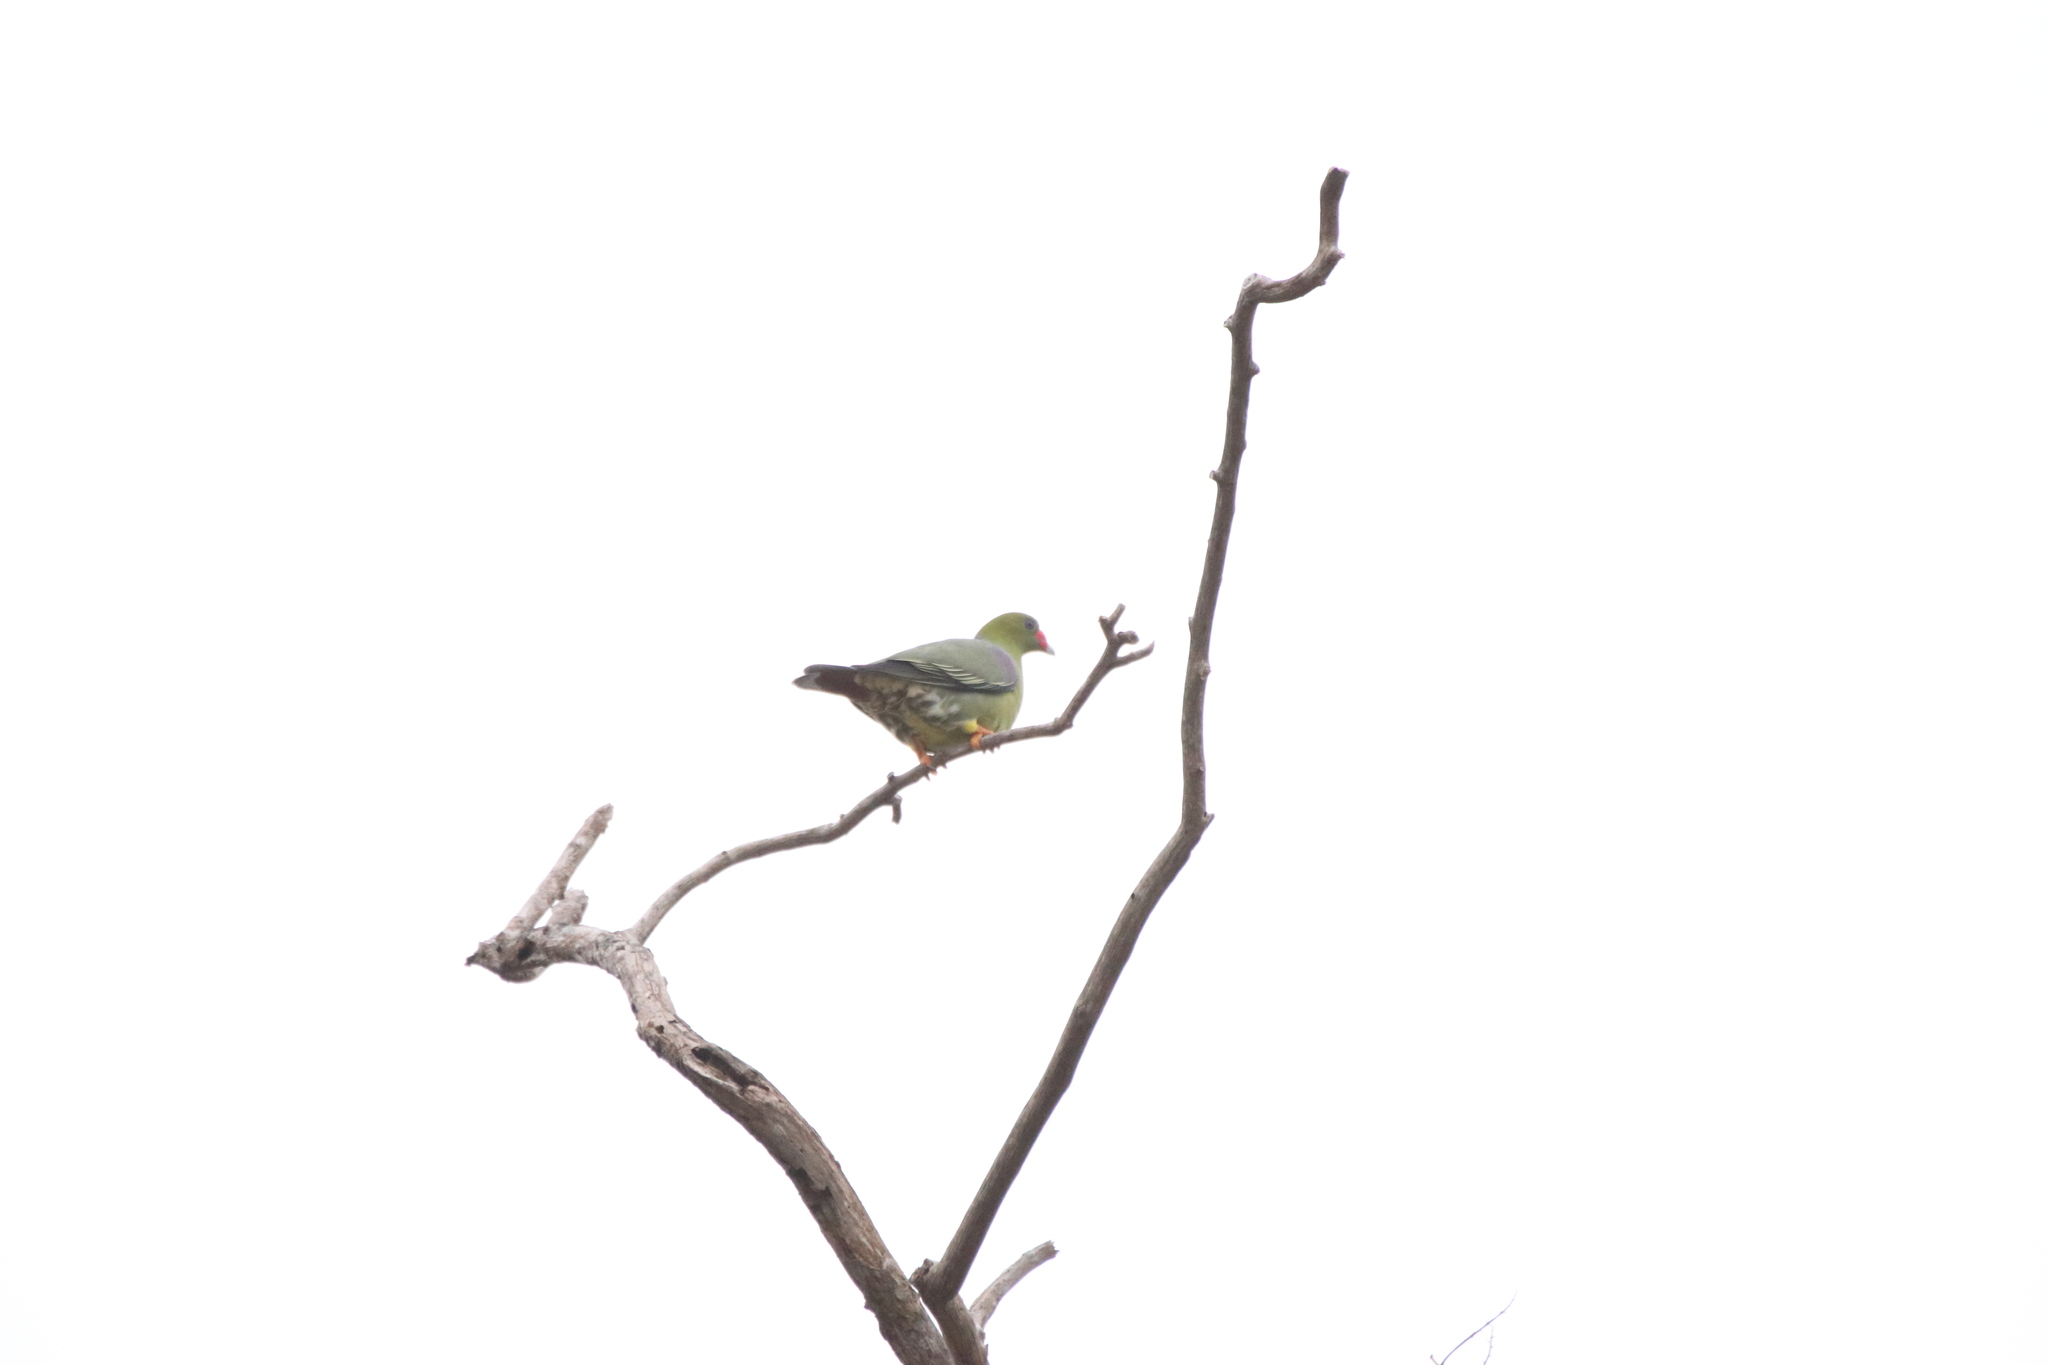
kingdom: Animalia
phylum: Chordata
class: Aves
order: Columbiformes
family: Columbidae
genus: Treron
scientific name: Treron calvus
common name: African green pigeon
